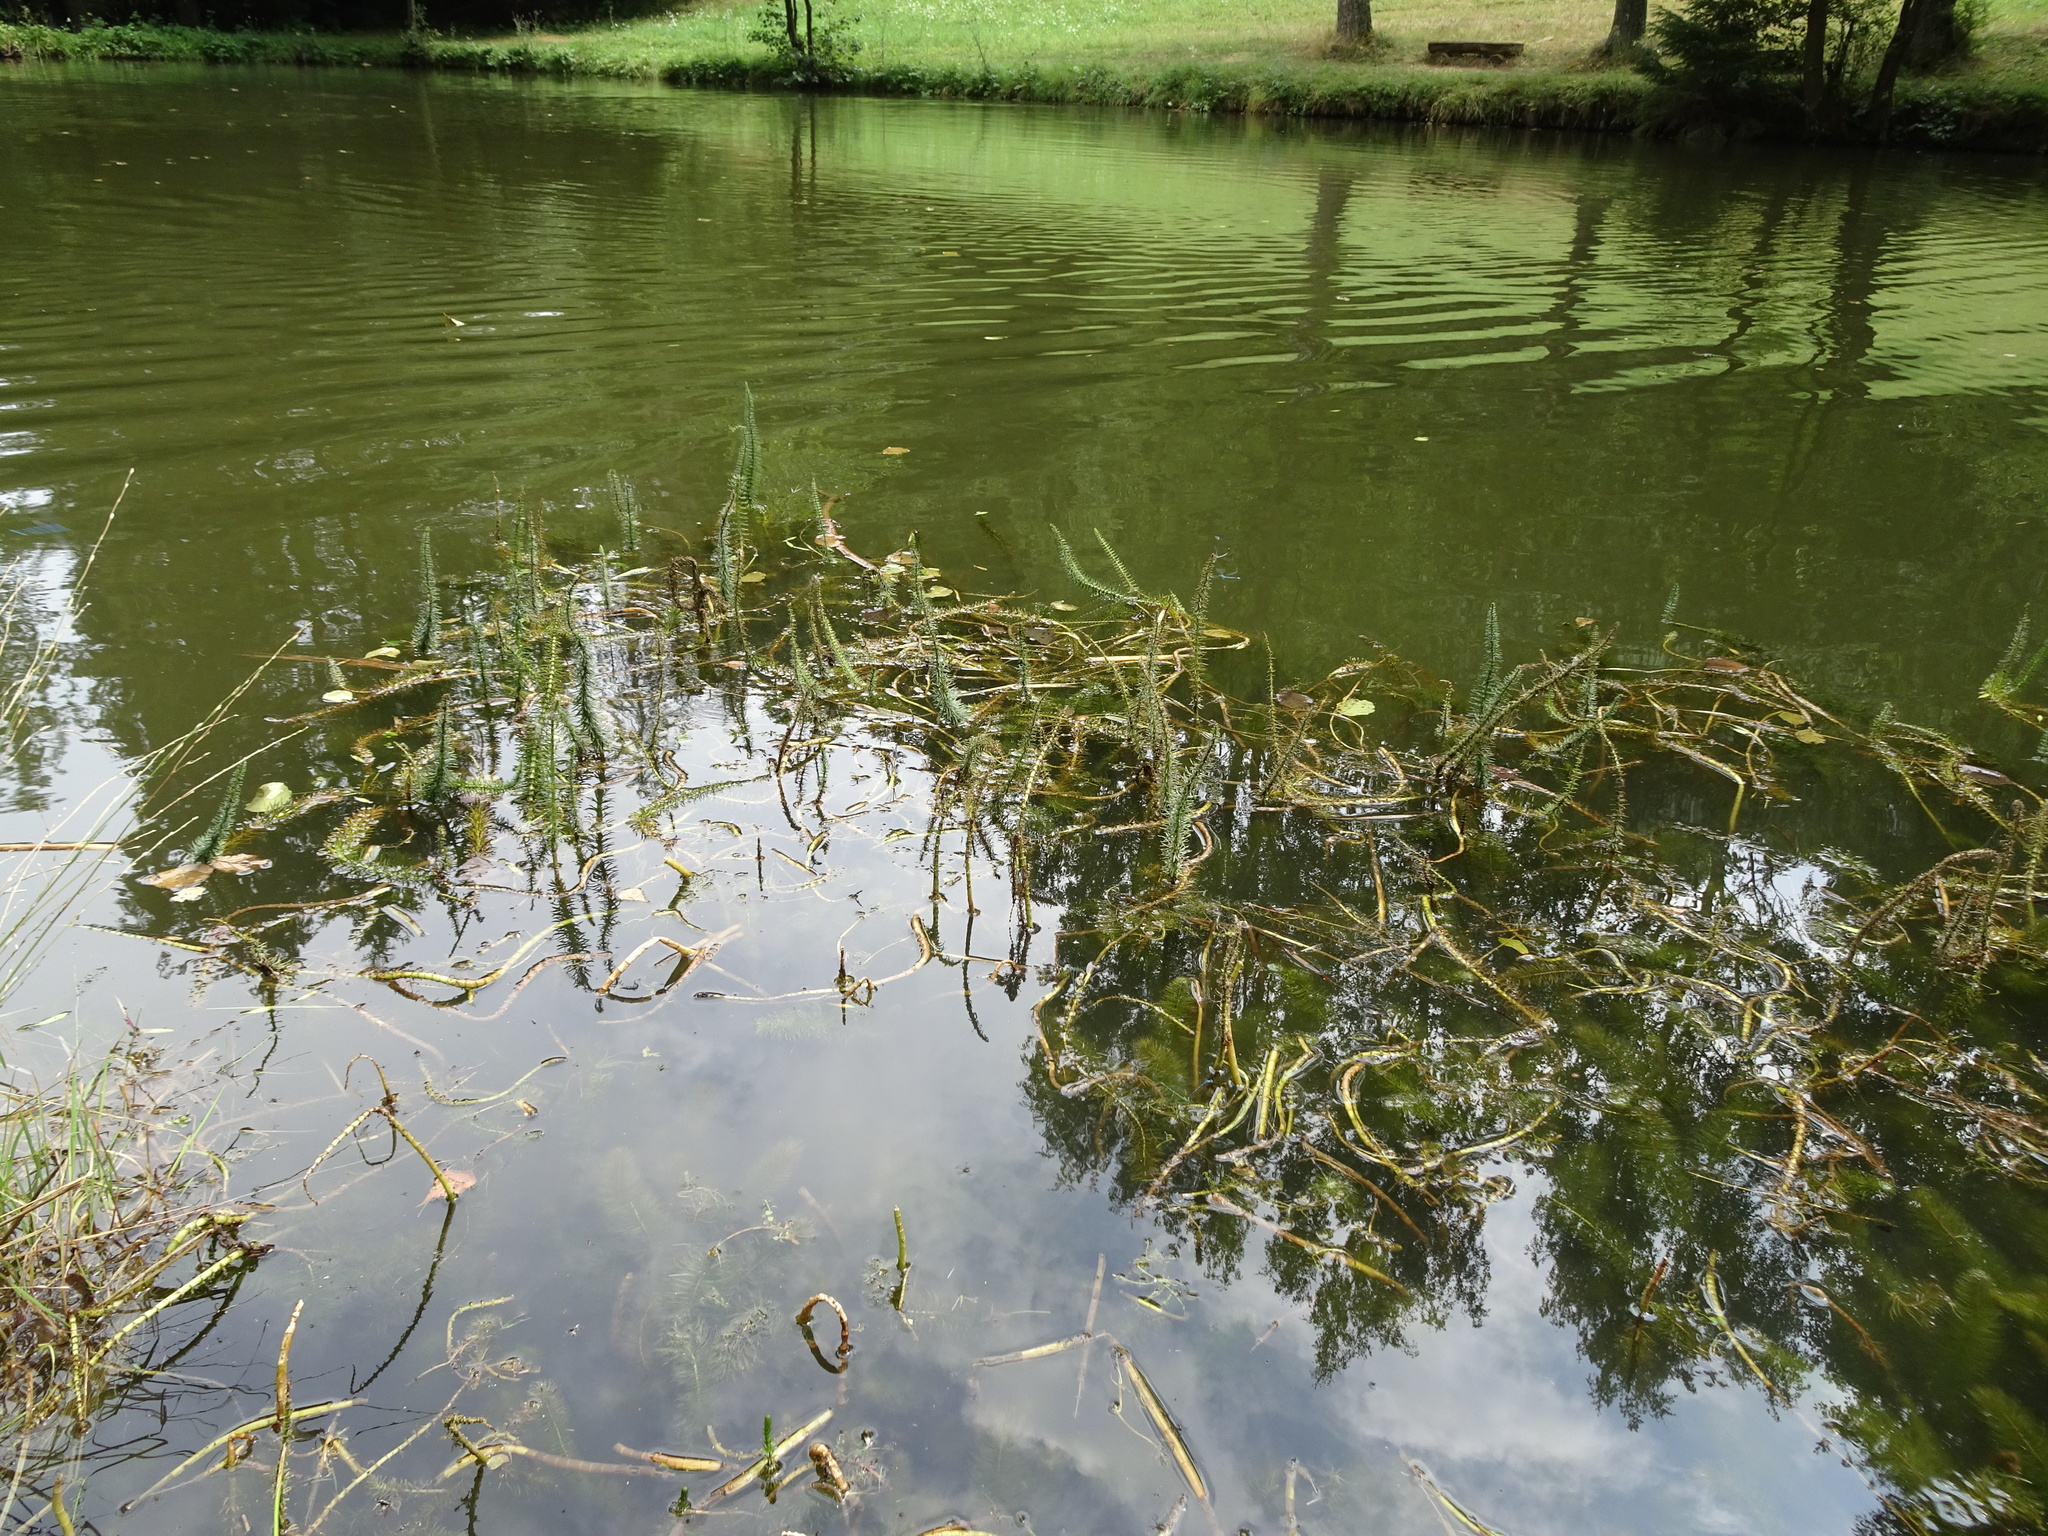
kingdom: Plantae
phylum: Tracheophyta
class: Magnoliopsida
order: Lamiales
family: Plantaginaceae
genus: Hippuris
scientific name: Hippuris vulgaris
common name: Mare's-tail
